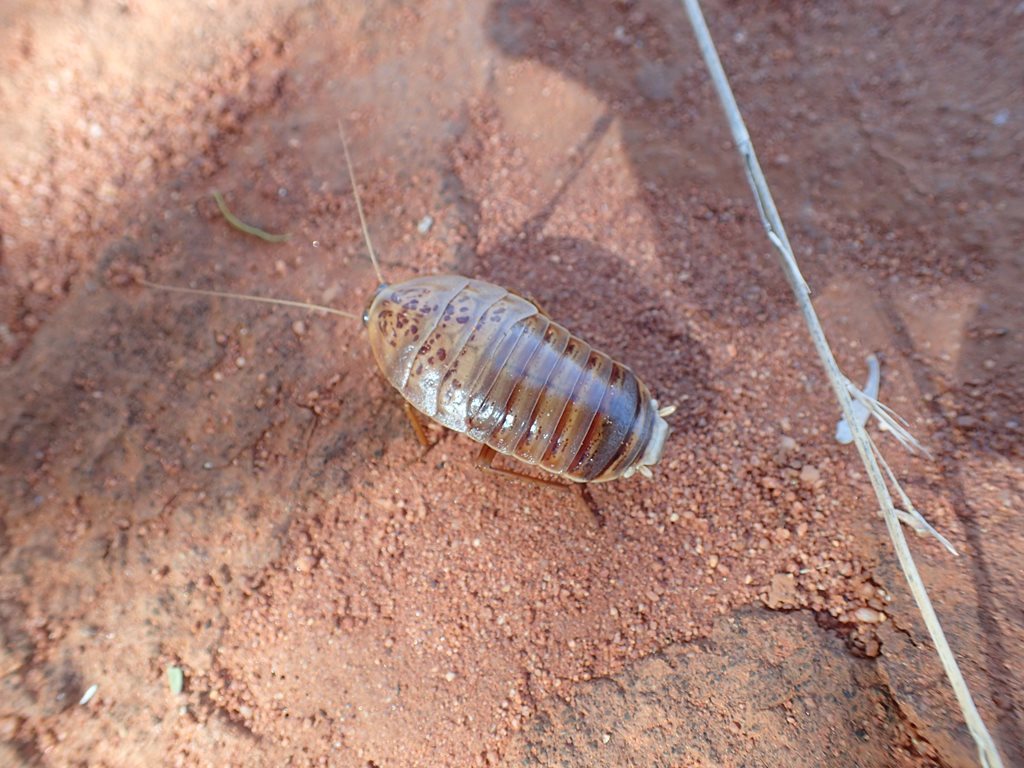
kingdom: Animalia
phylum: Arthropoda
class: Insecta
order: Blattodea
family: Blattidae
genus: Anamesia
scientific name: Anamesia maculosa
